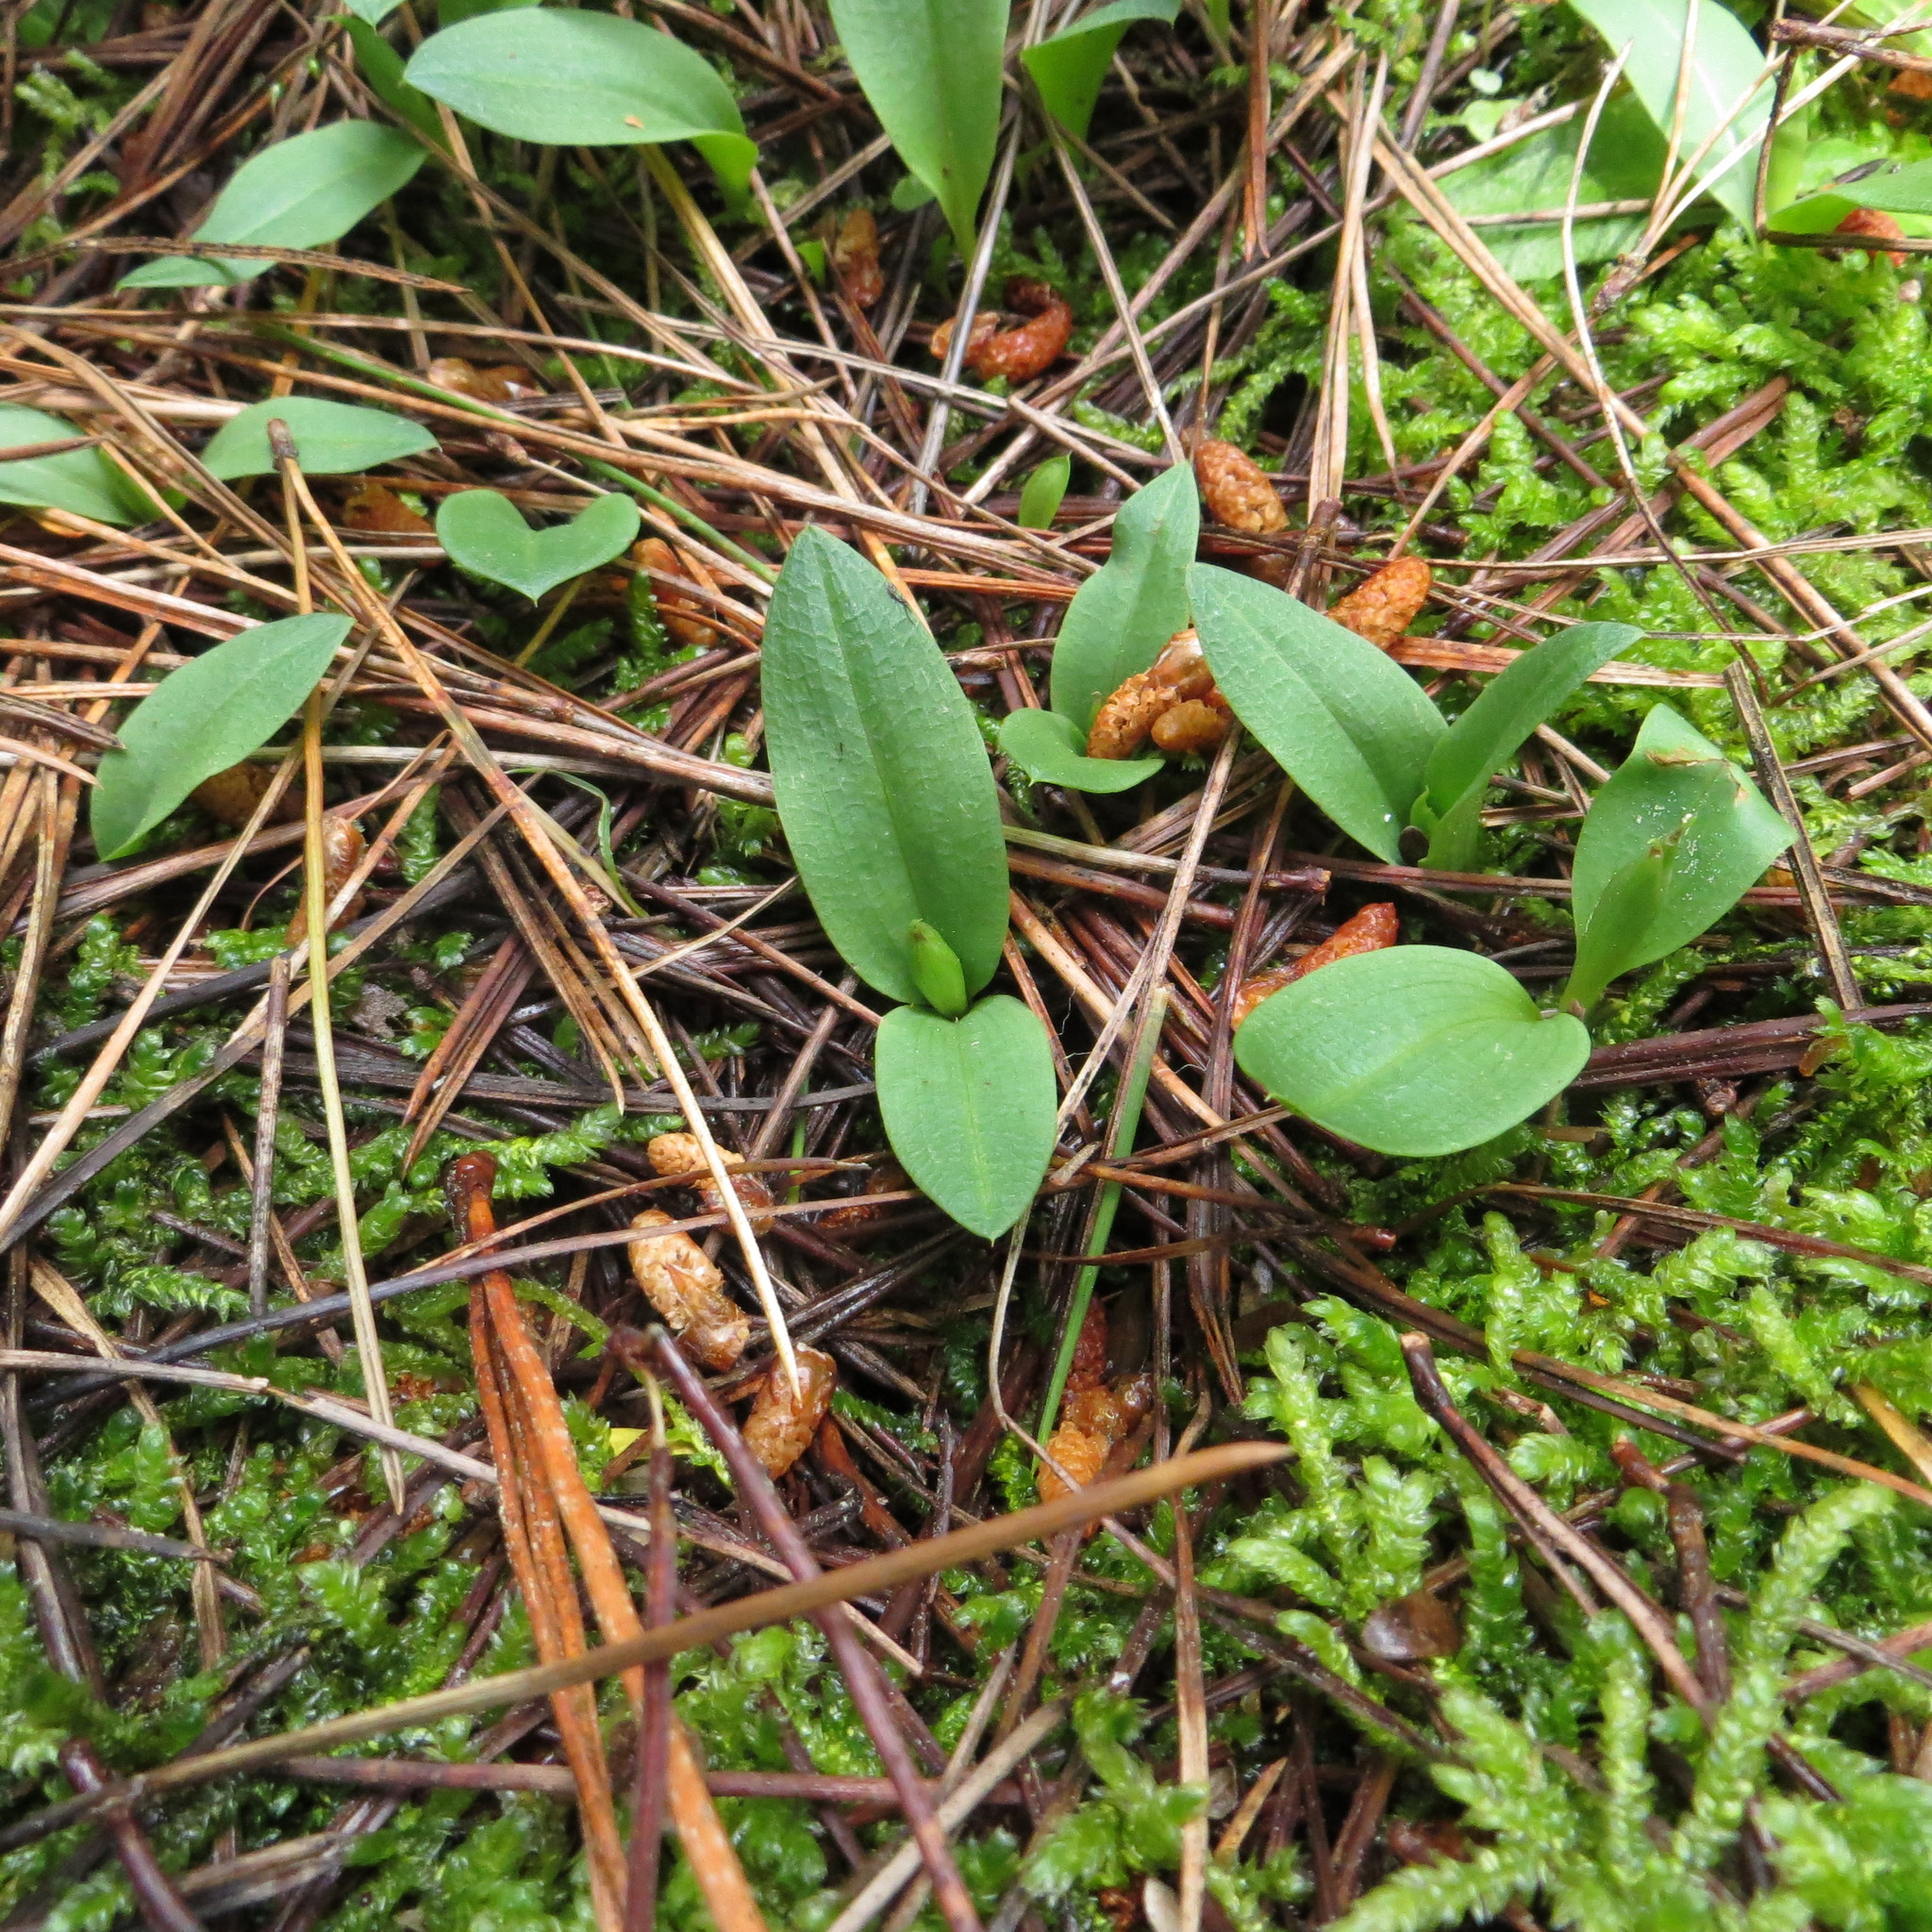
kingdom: Plantae
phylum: Tracheophyta
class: Liliopsida
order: Asparagales
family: Orchidaceae
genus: Chiloglottis
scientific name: Chiloglottis cornuta
